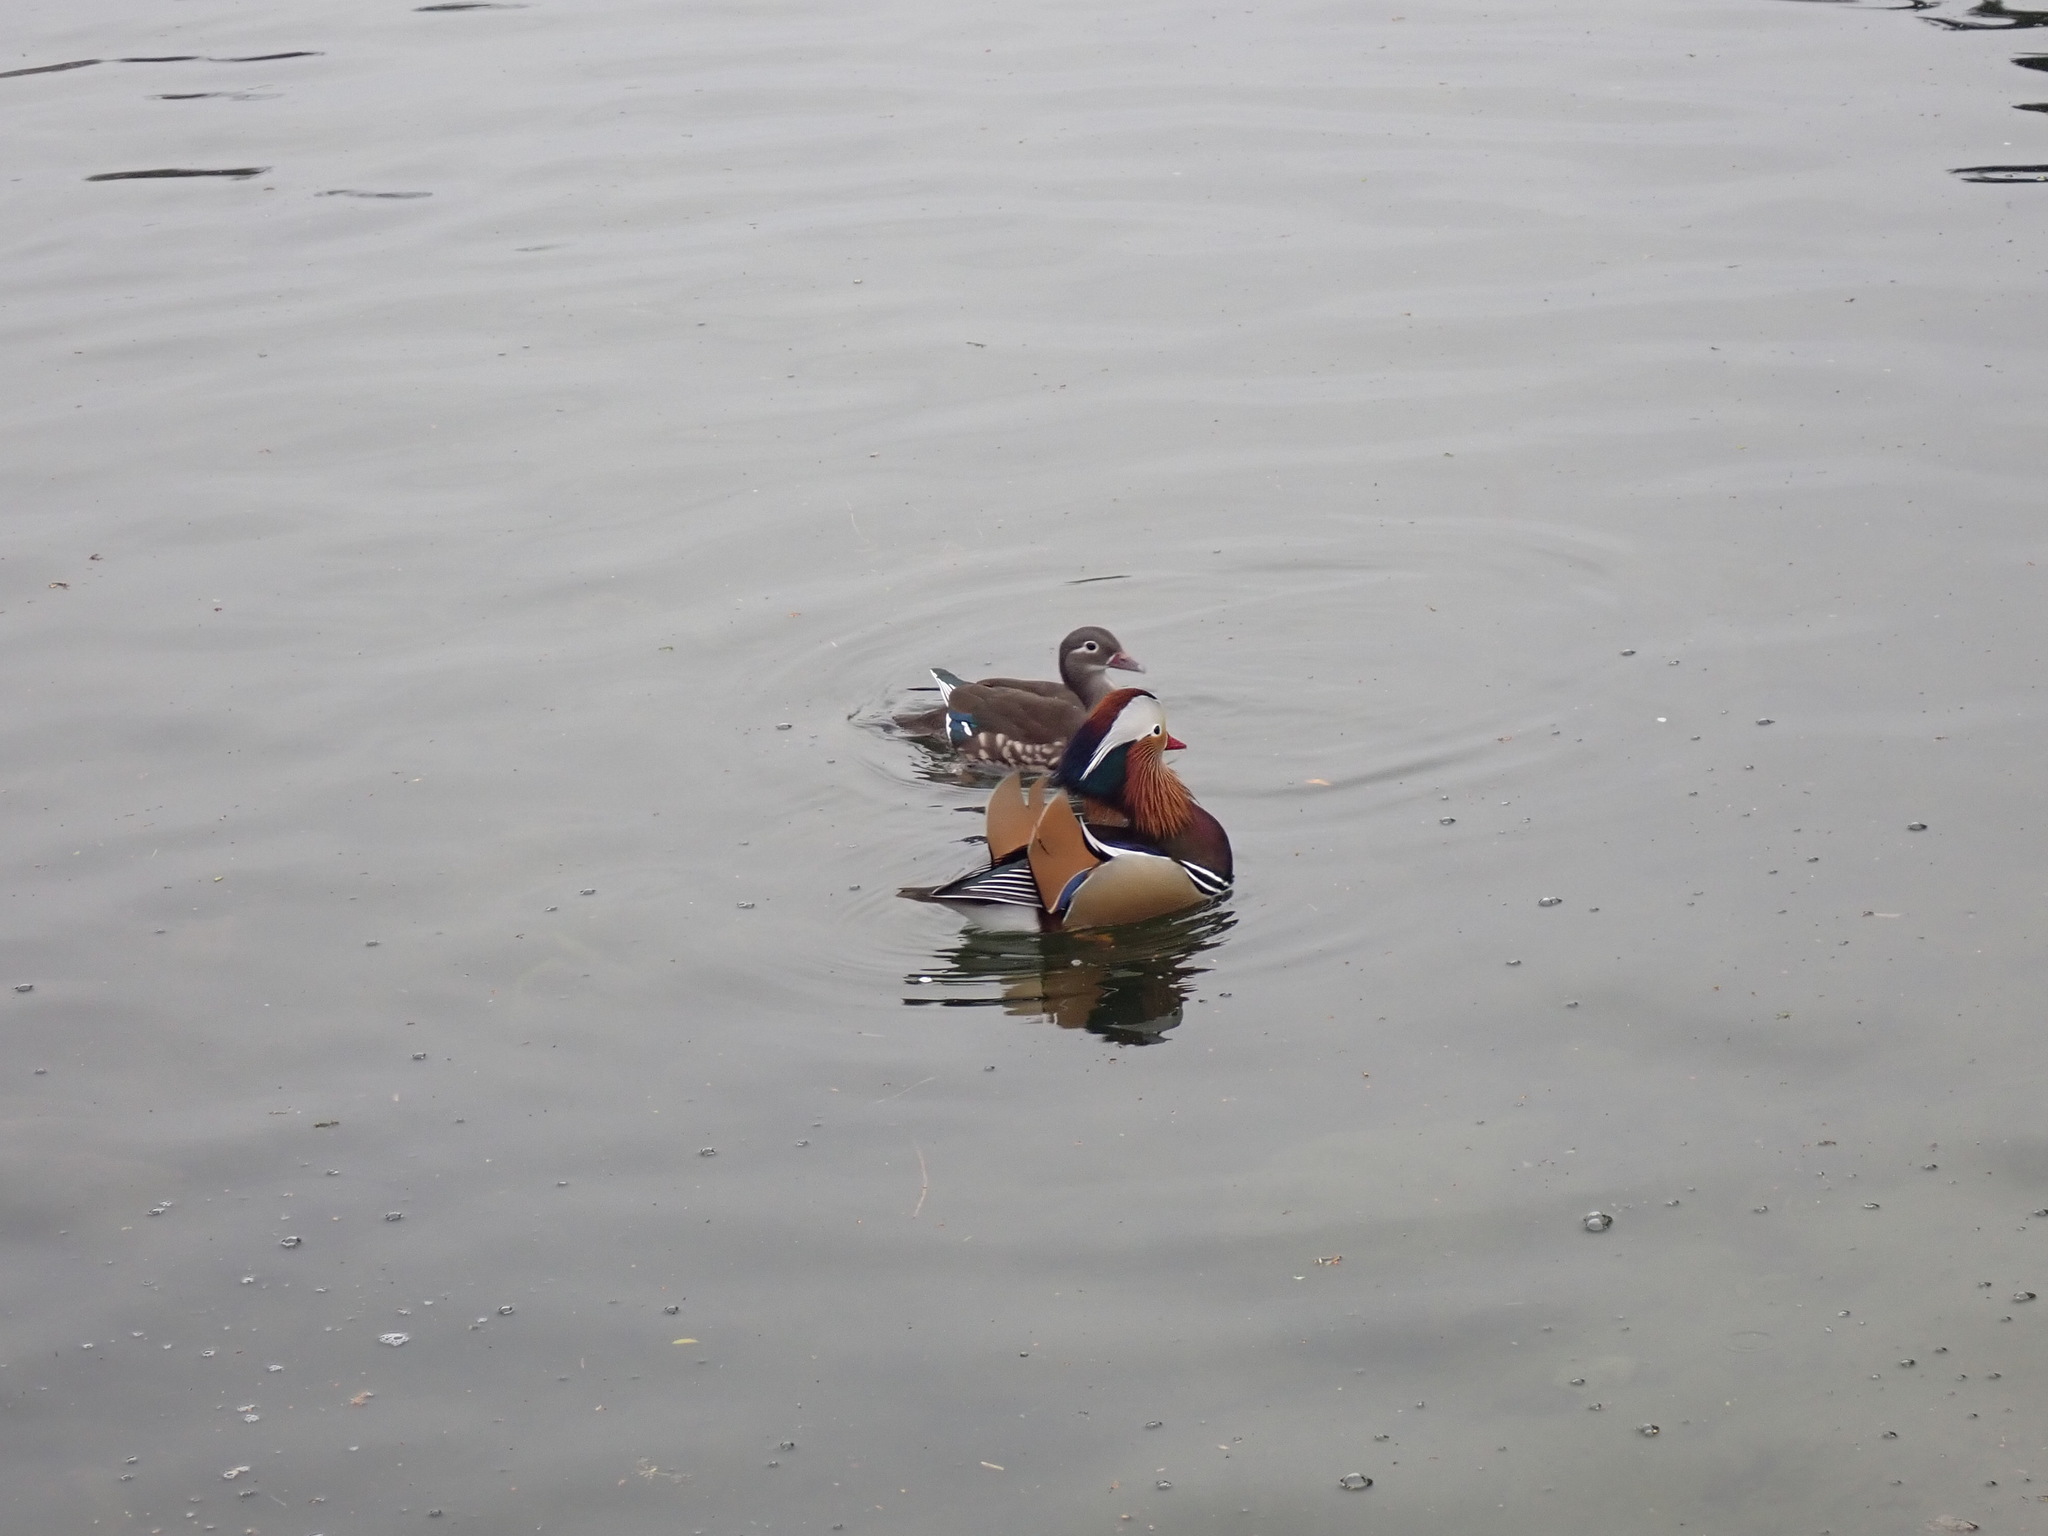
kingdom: Animalia
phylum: Chordata
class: Aves
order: Anseriformes
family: Anatidae
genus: Aix
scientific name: Aix galericulata
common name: Mandarin duck
